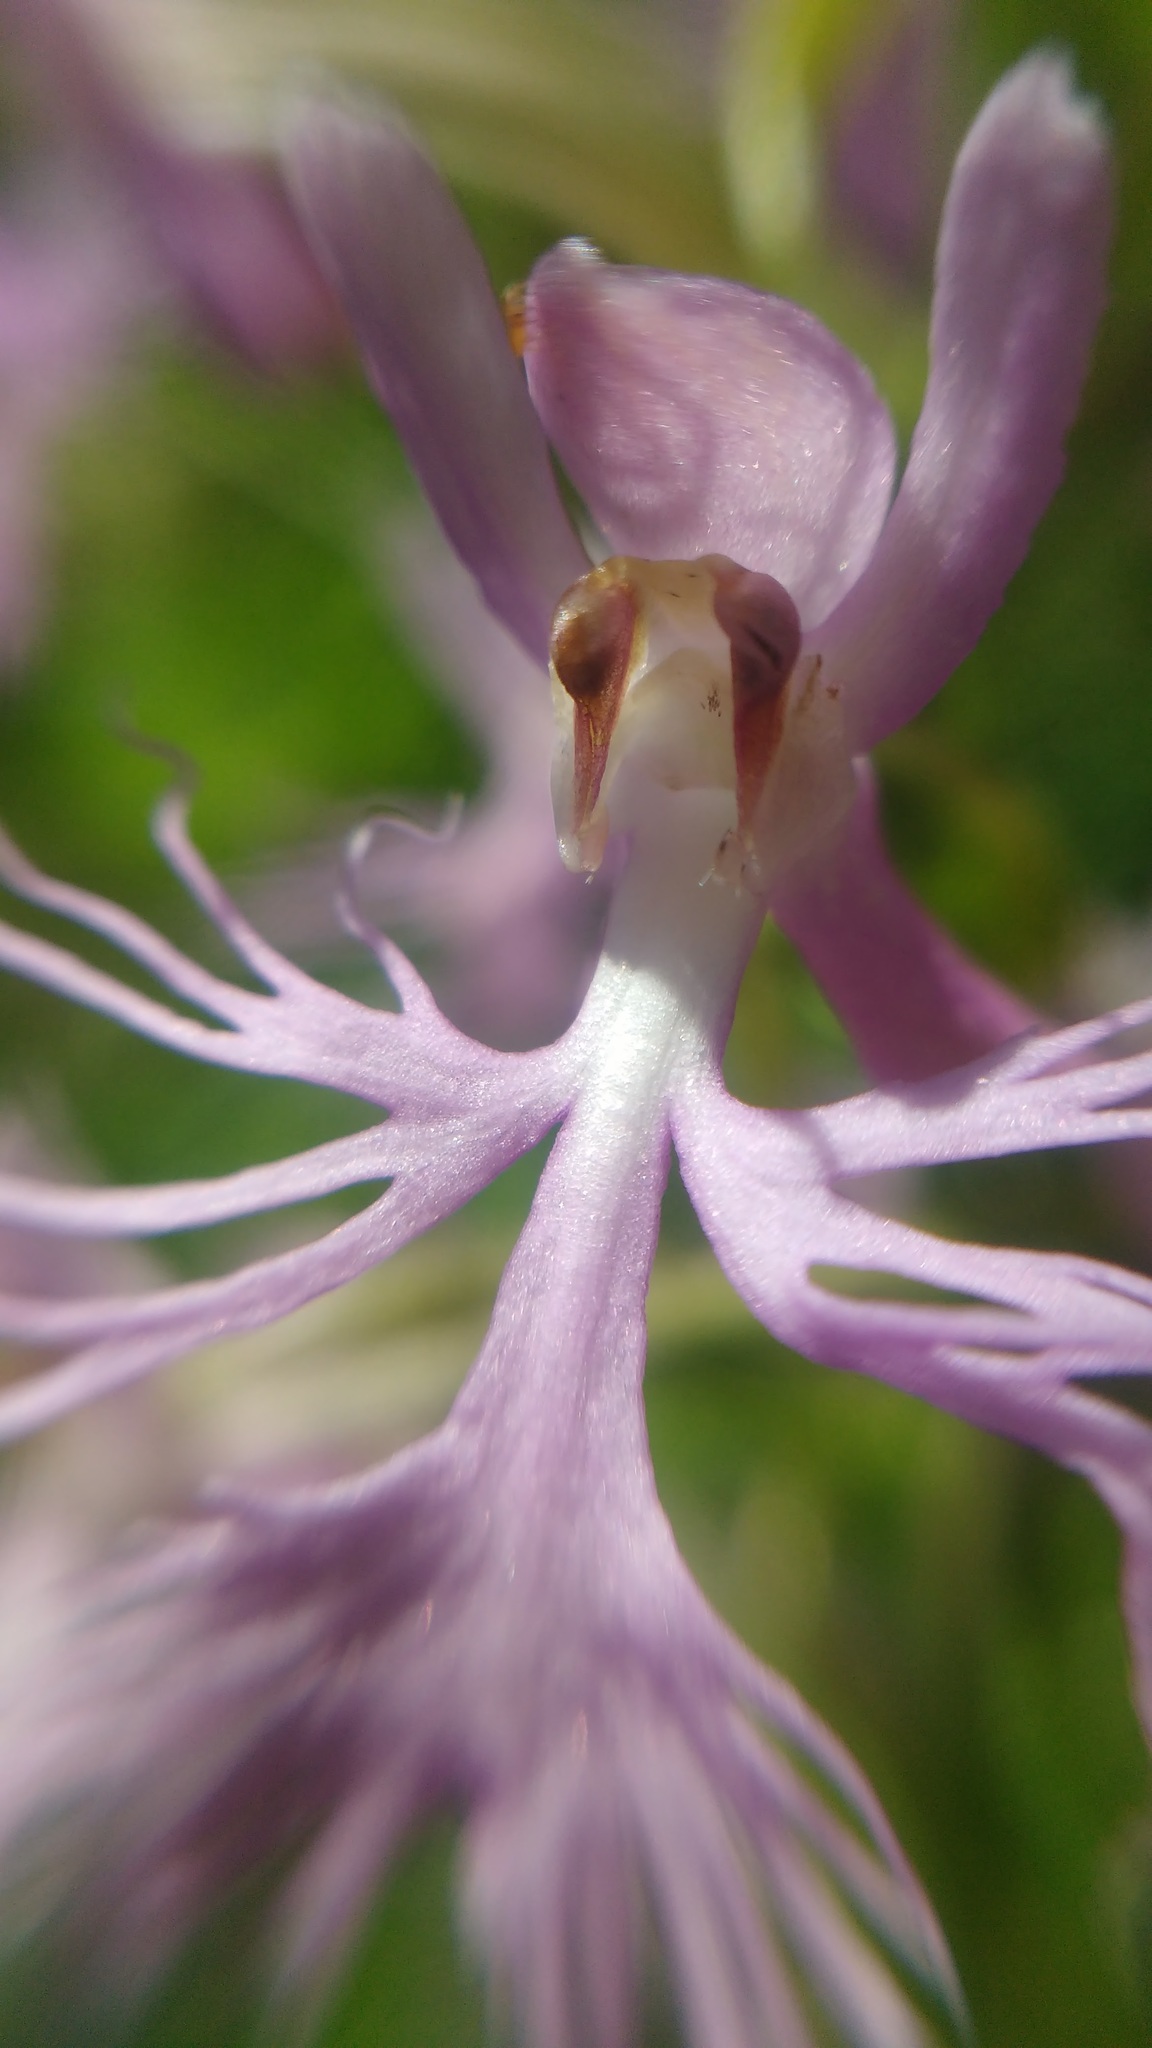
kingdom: Plantae
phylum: Tracheophyta
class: Liliopsida
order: Asparagales
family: Orchidaceae
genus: Platanthera
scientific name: Platanthera keenanii
